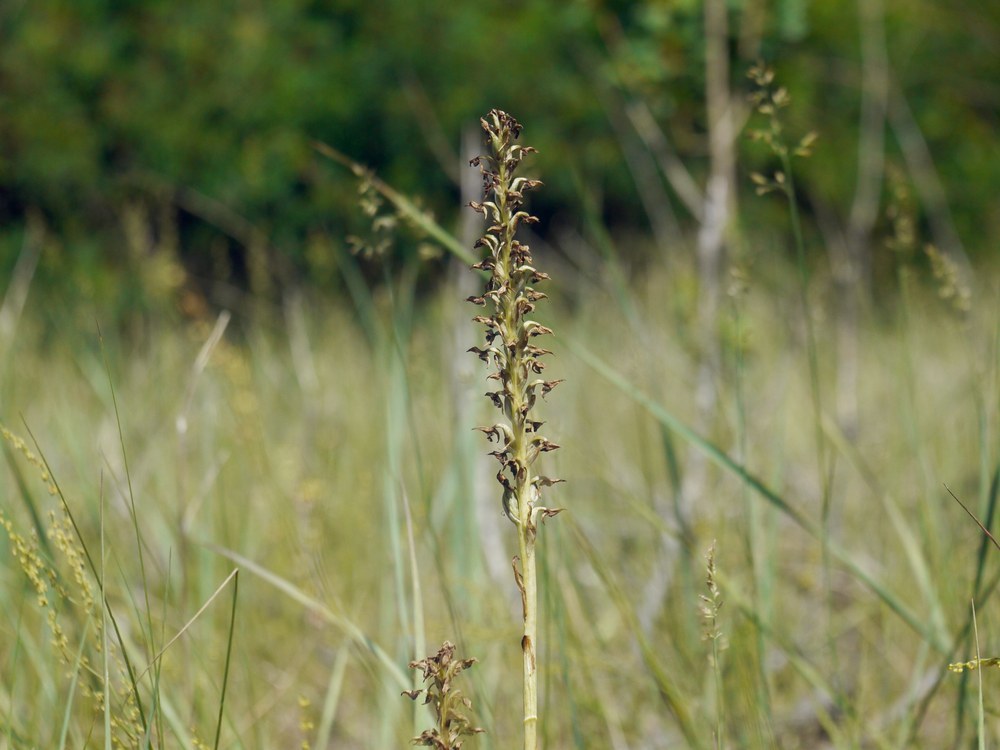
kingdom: Plantae
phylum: Tracheophyta
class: Liliopsida
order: Asparagales
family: Orchidaceae
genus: Anacamptis
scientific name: Anacamptis coriophora
